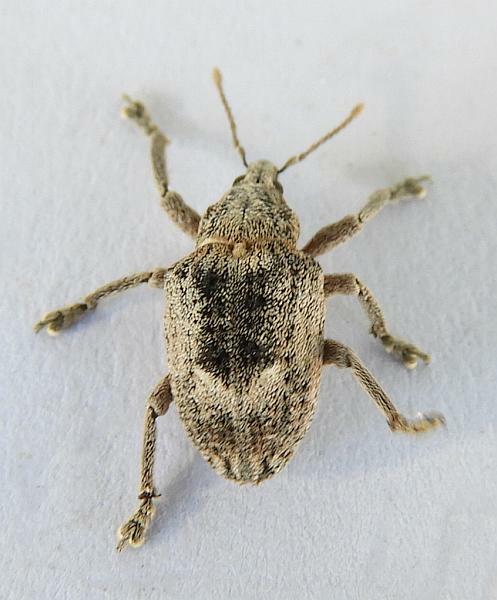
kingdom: Animalia
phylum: Arthropoda
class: Insecta
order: Coleoptera
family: Curculionidae
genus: Oxyops
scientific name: Oxyops vitiosus
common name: Weevil
